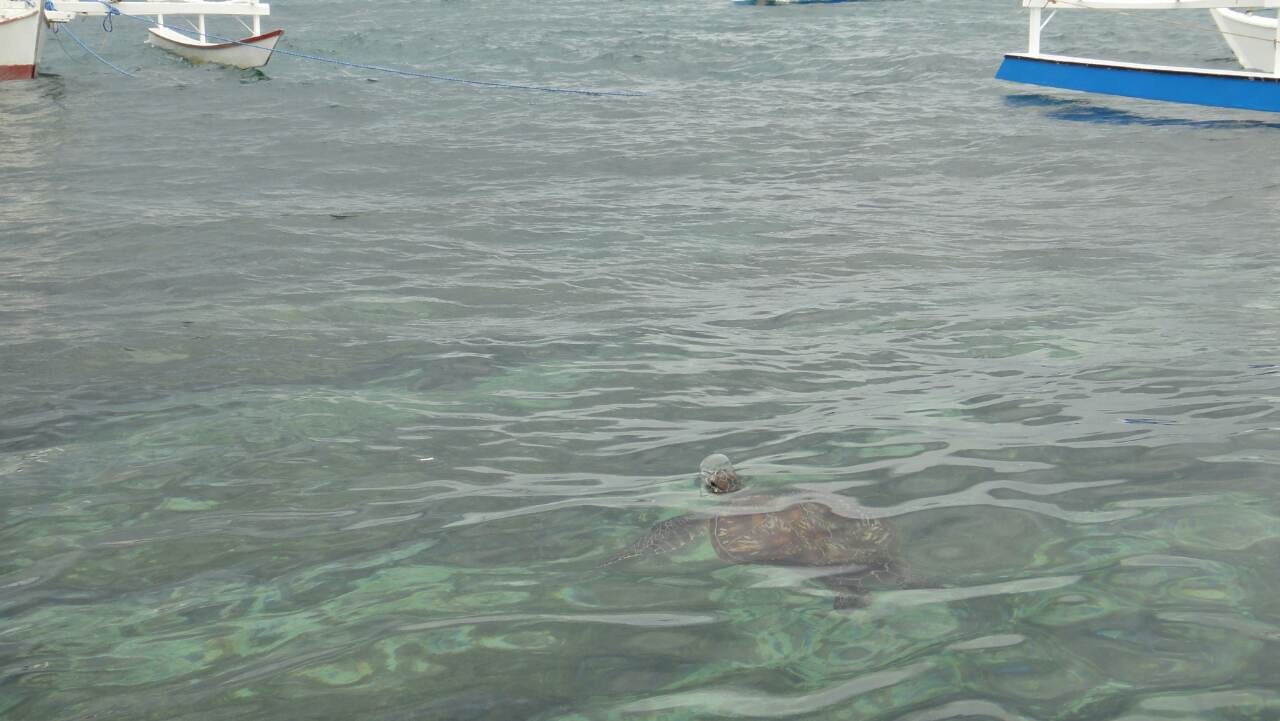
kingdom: Animalia
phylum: Chordata
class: Testudines
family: Cheloniidae
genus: Chelonia
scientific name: Chelonia mydas
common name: Green turtle
